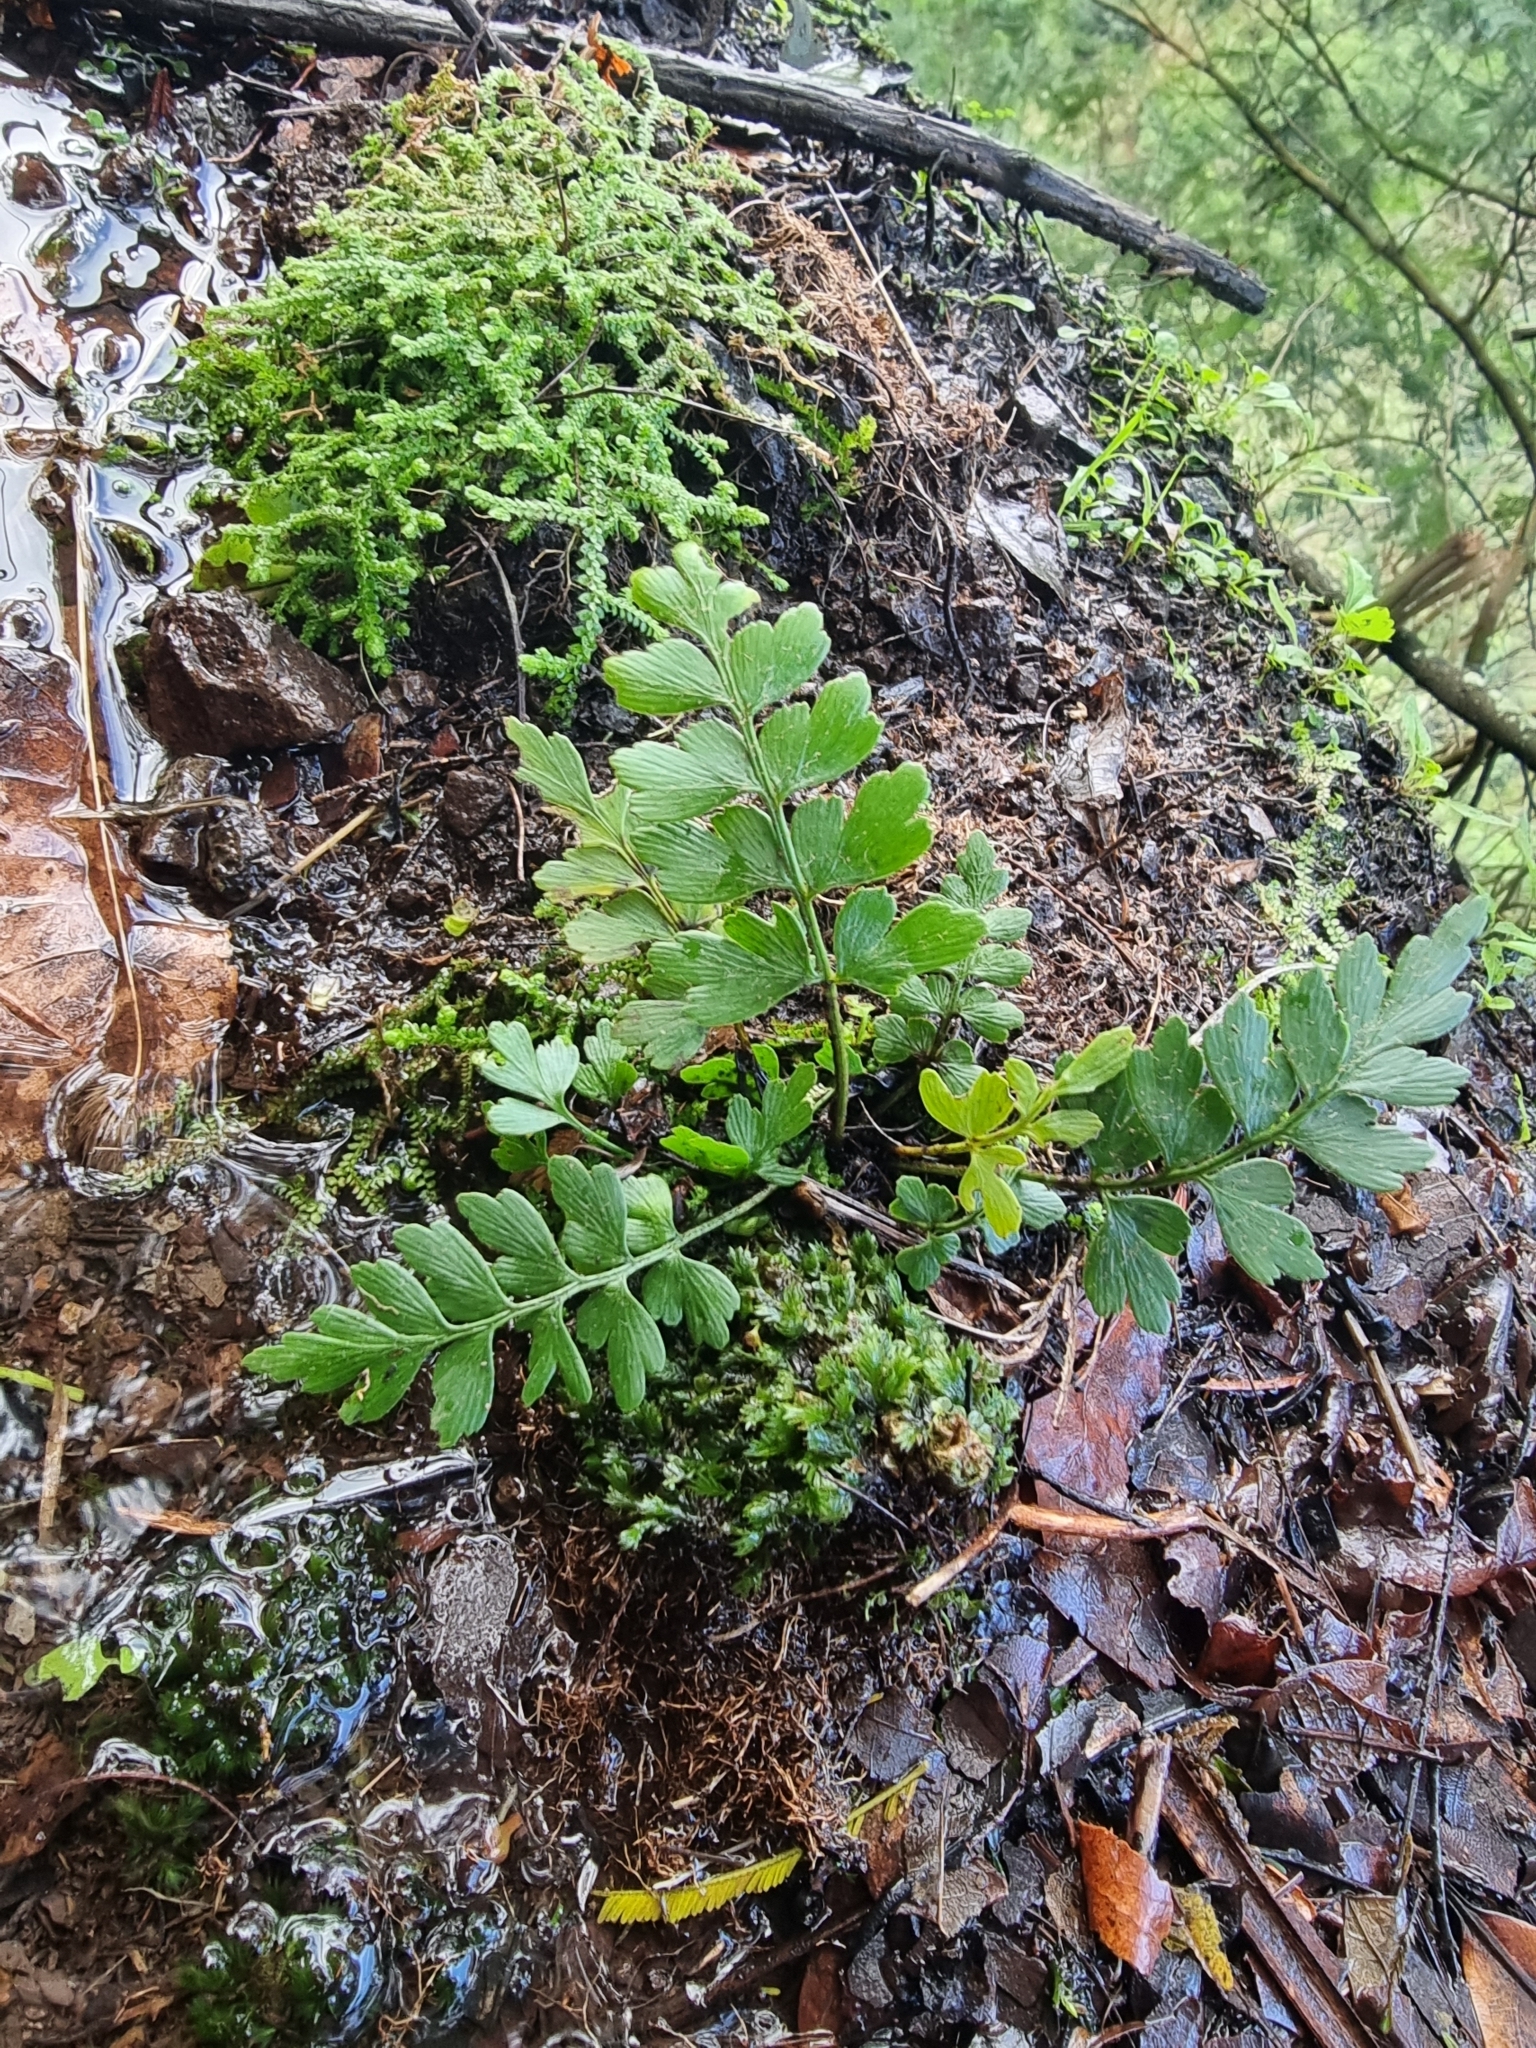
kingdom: Plantae
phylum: Tracheophyta
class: Polypodiopsida
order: Polypodiales
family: Aspleniaceae
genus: Asplenium
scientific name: Asplenium braithwaitei
